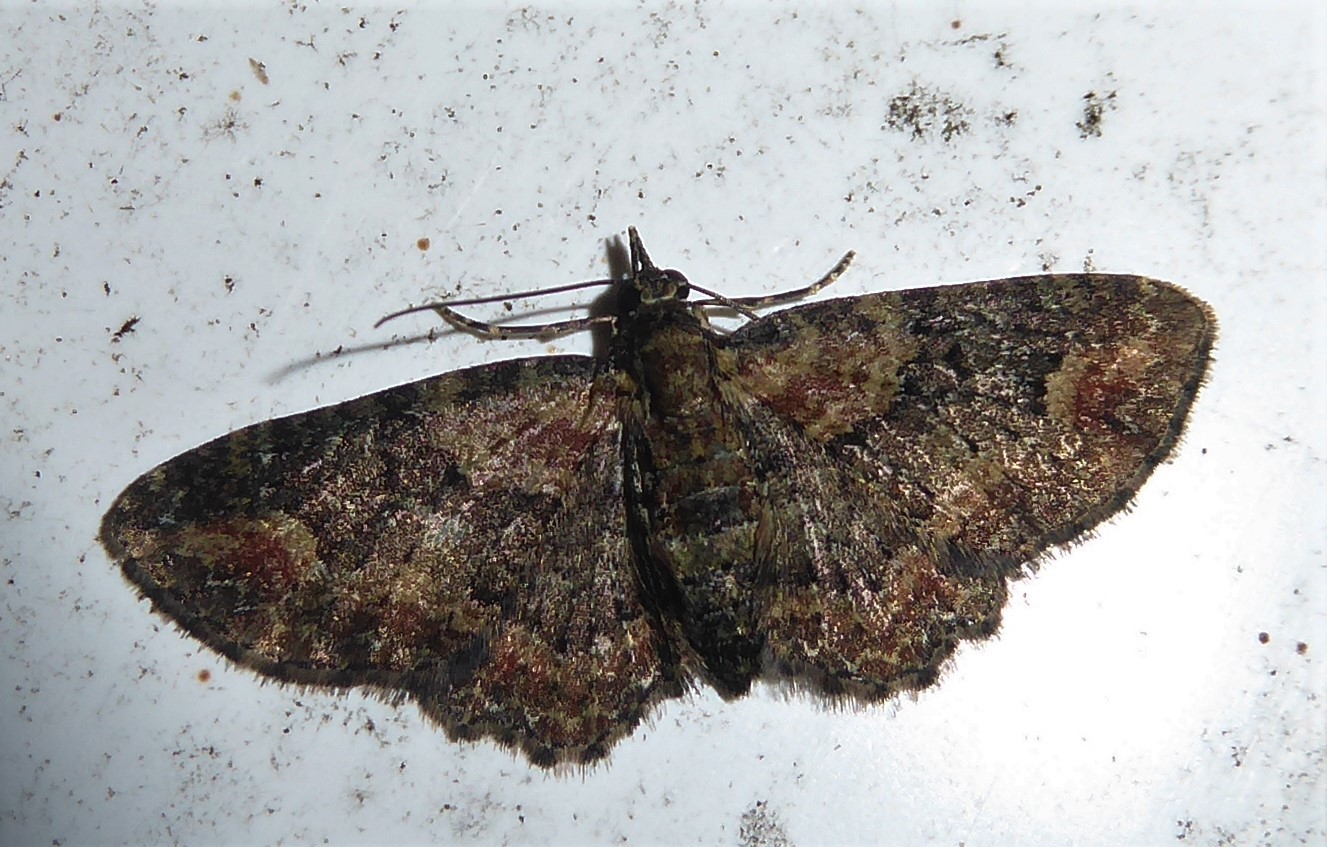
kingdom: Animalia
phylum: Arthropoda
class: Insecta
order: Lepidoptera
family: Geometridae
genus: Pasiphilodes
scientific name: Pasiphilodes testulata
